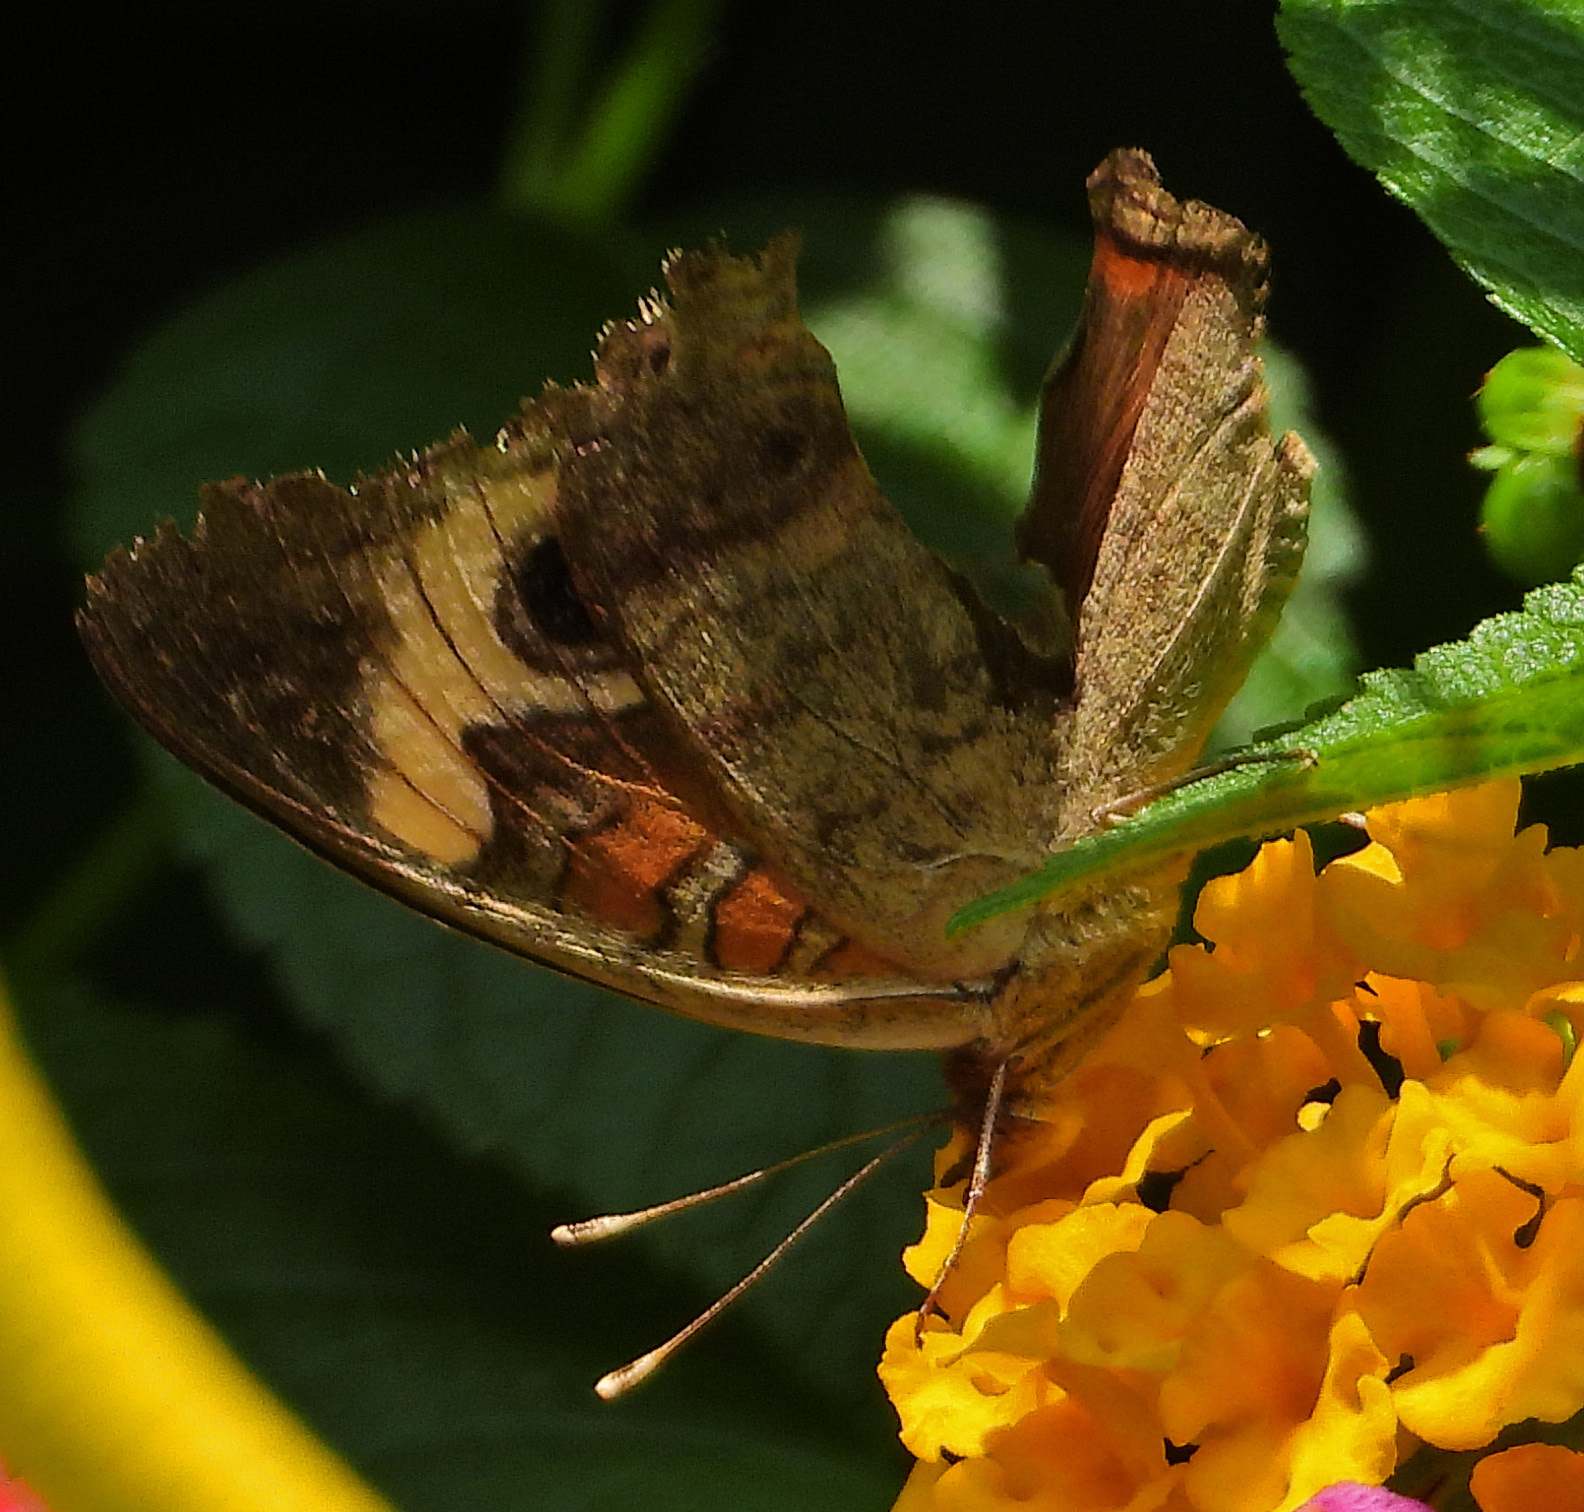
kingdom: Animalia
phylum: Arthropoda
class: Insecta
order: Lepidoptera
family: Nymphalidae
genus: Junonia
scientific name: Junonia coenia
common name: Common buckeye
